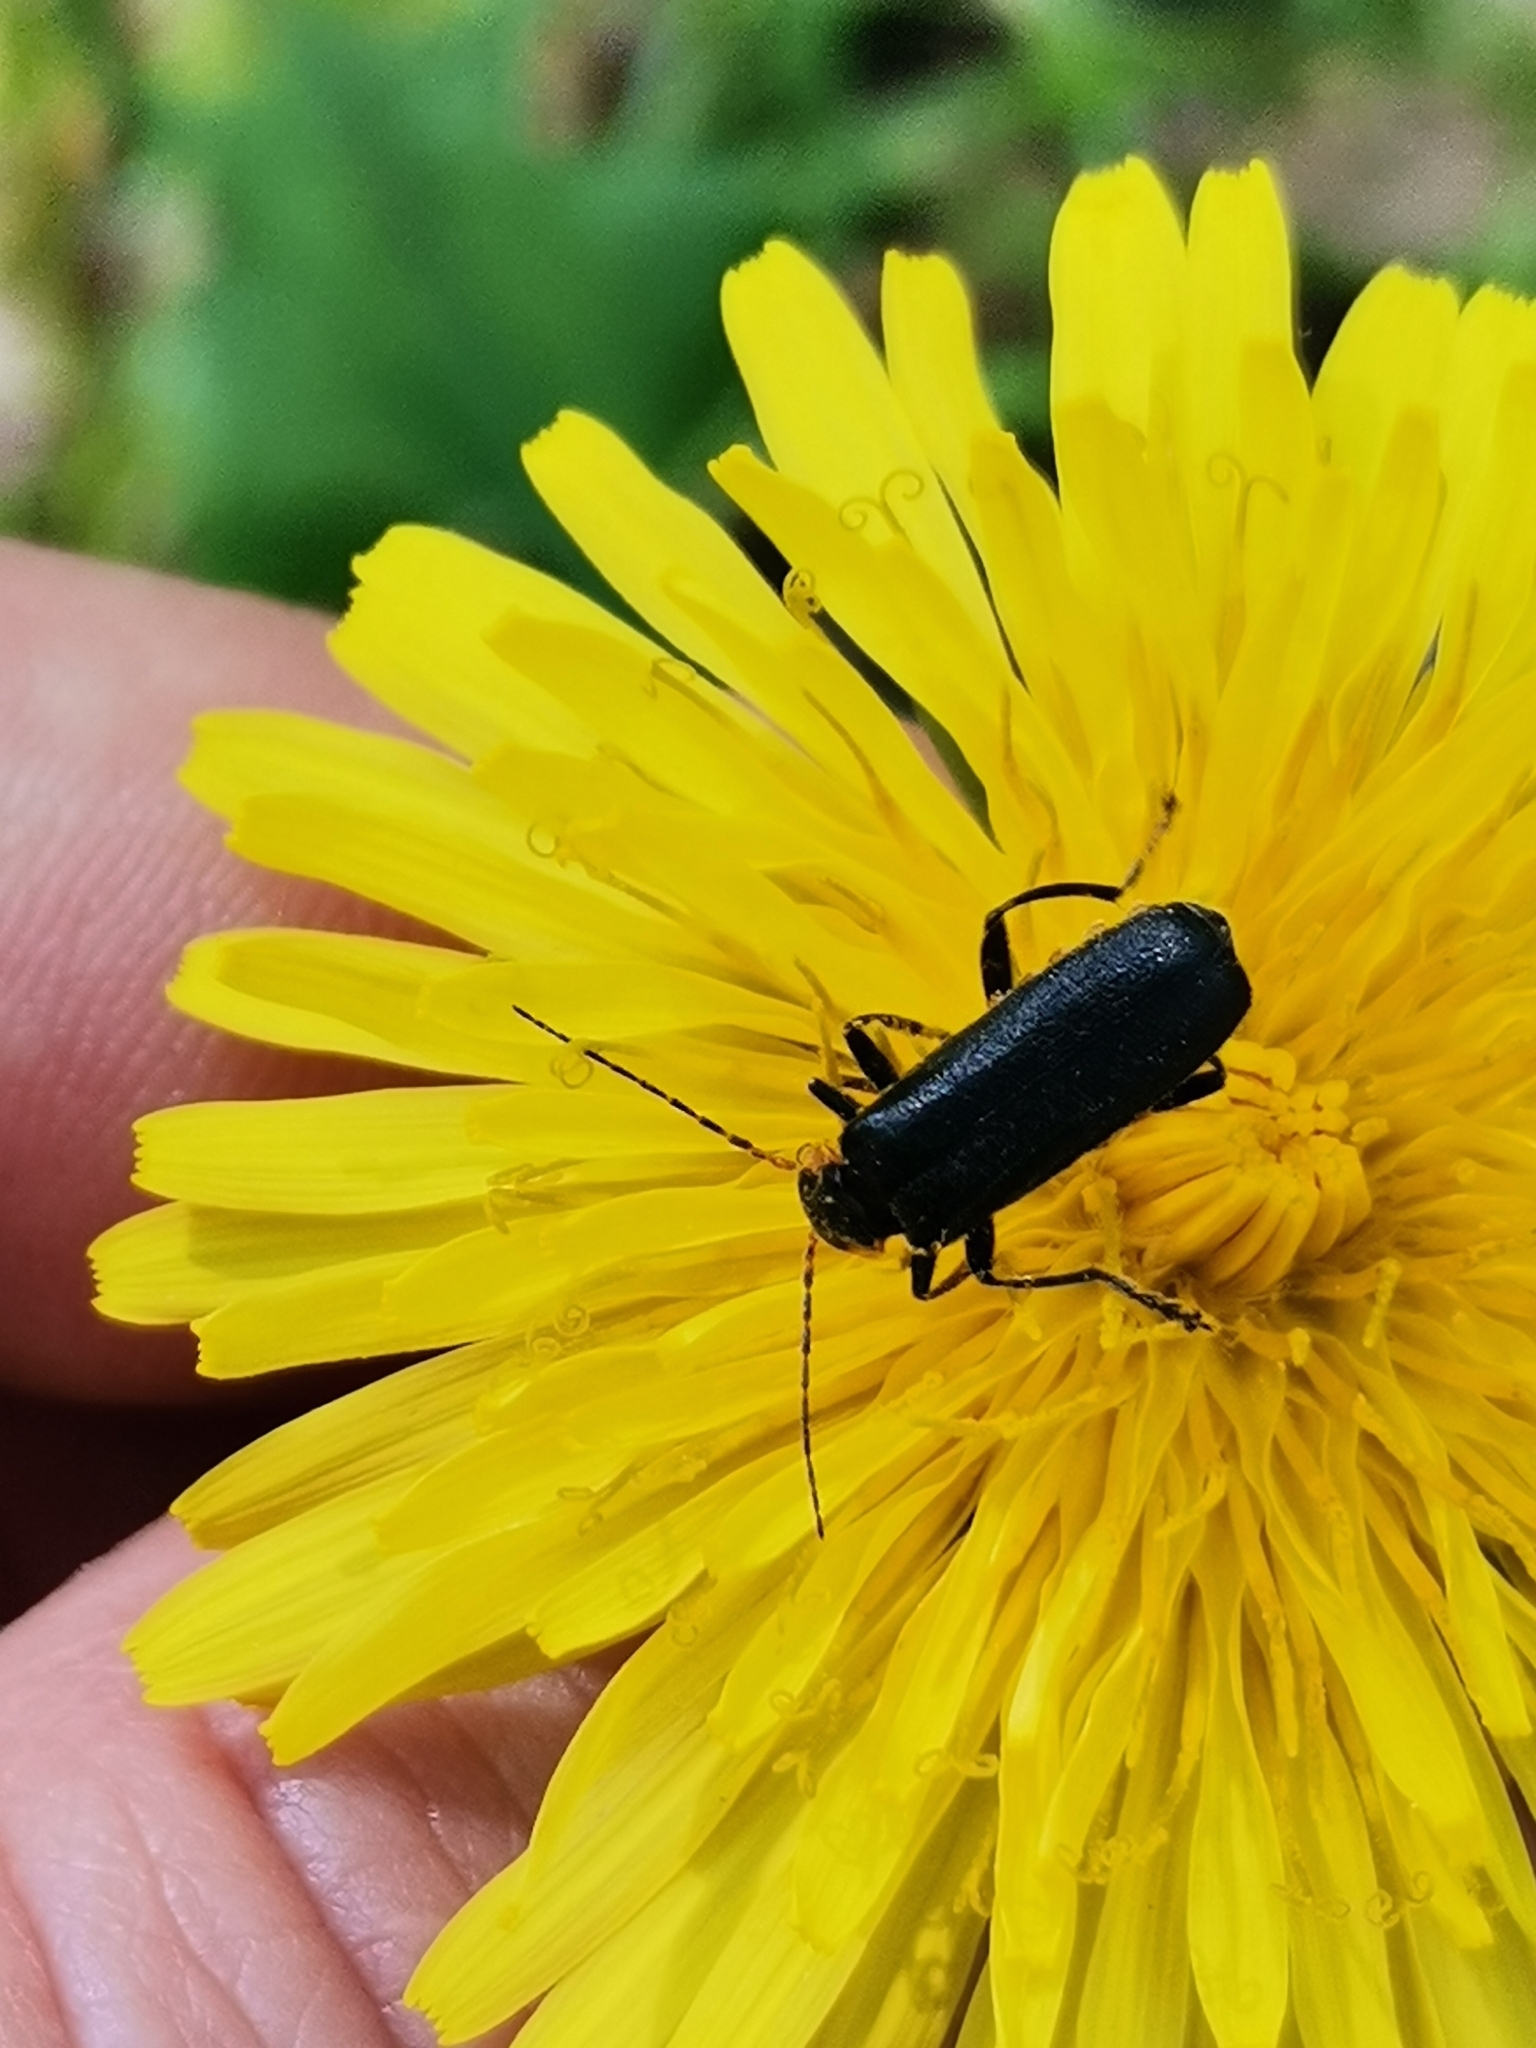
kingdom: Animalia
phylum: Arthropoda
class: Insecta
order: Coleoptera
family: Cantharidae
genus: Cantharis
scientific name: Cantharis obscura
